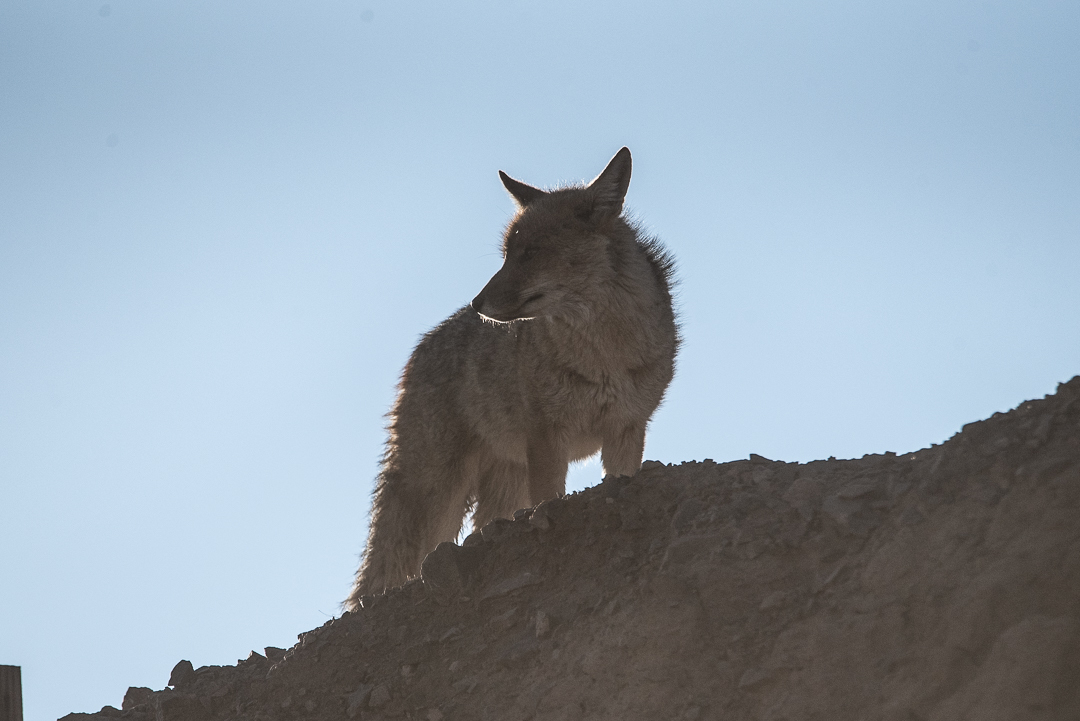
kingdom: Animalia
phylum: Chordata
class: Mammalia
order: Carnivora
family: Canidae
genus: Lycalopex
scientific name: Lycalopex culpaeus
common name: Culpeo
